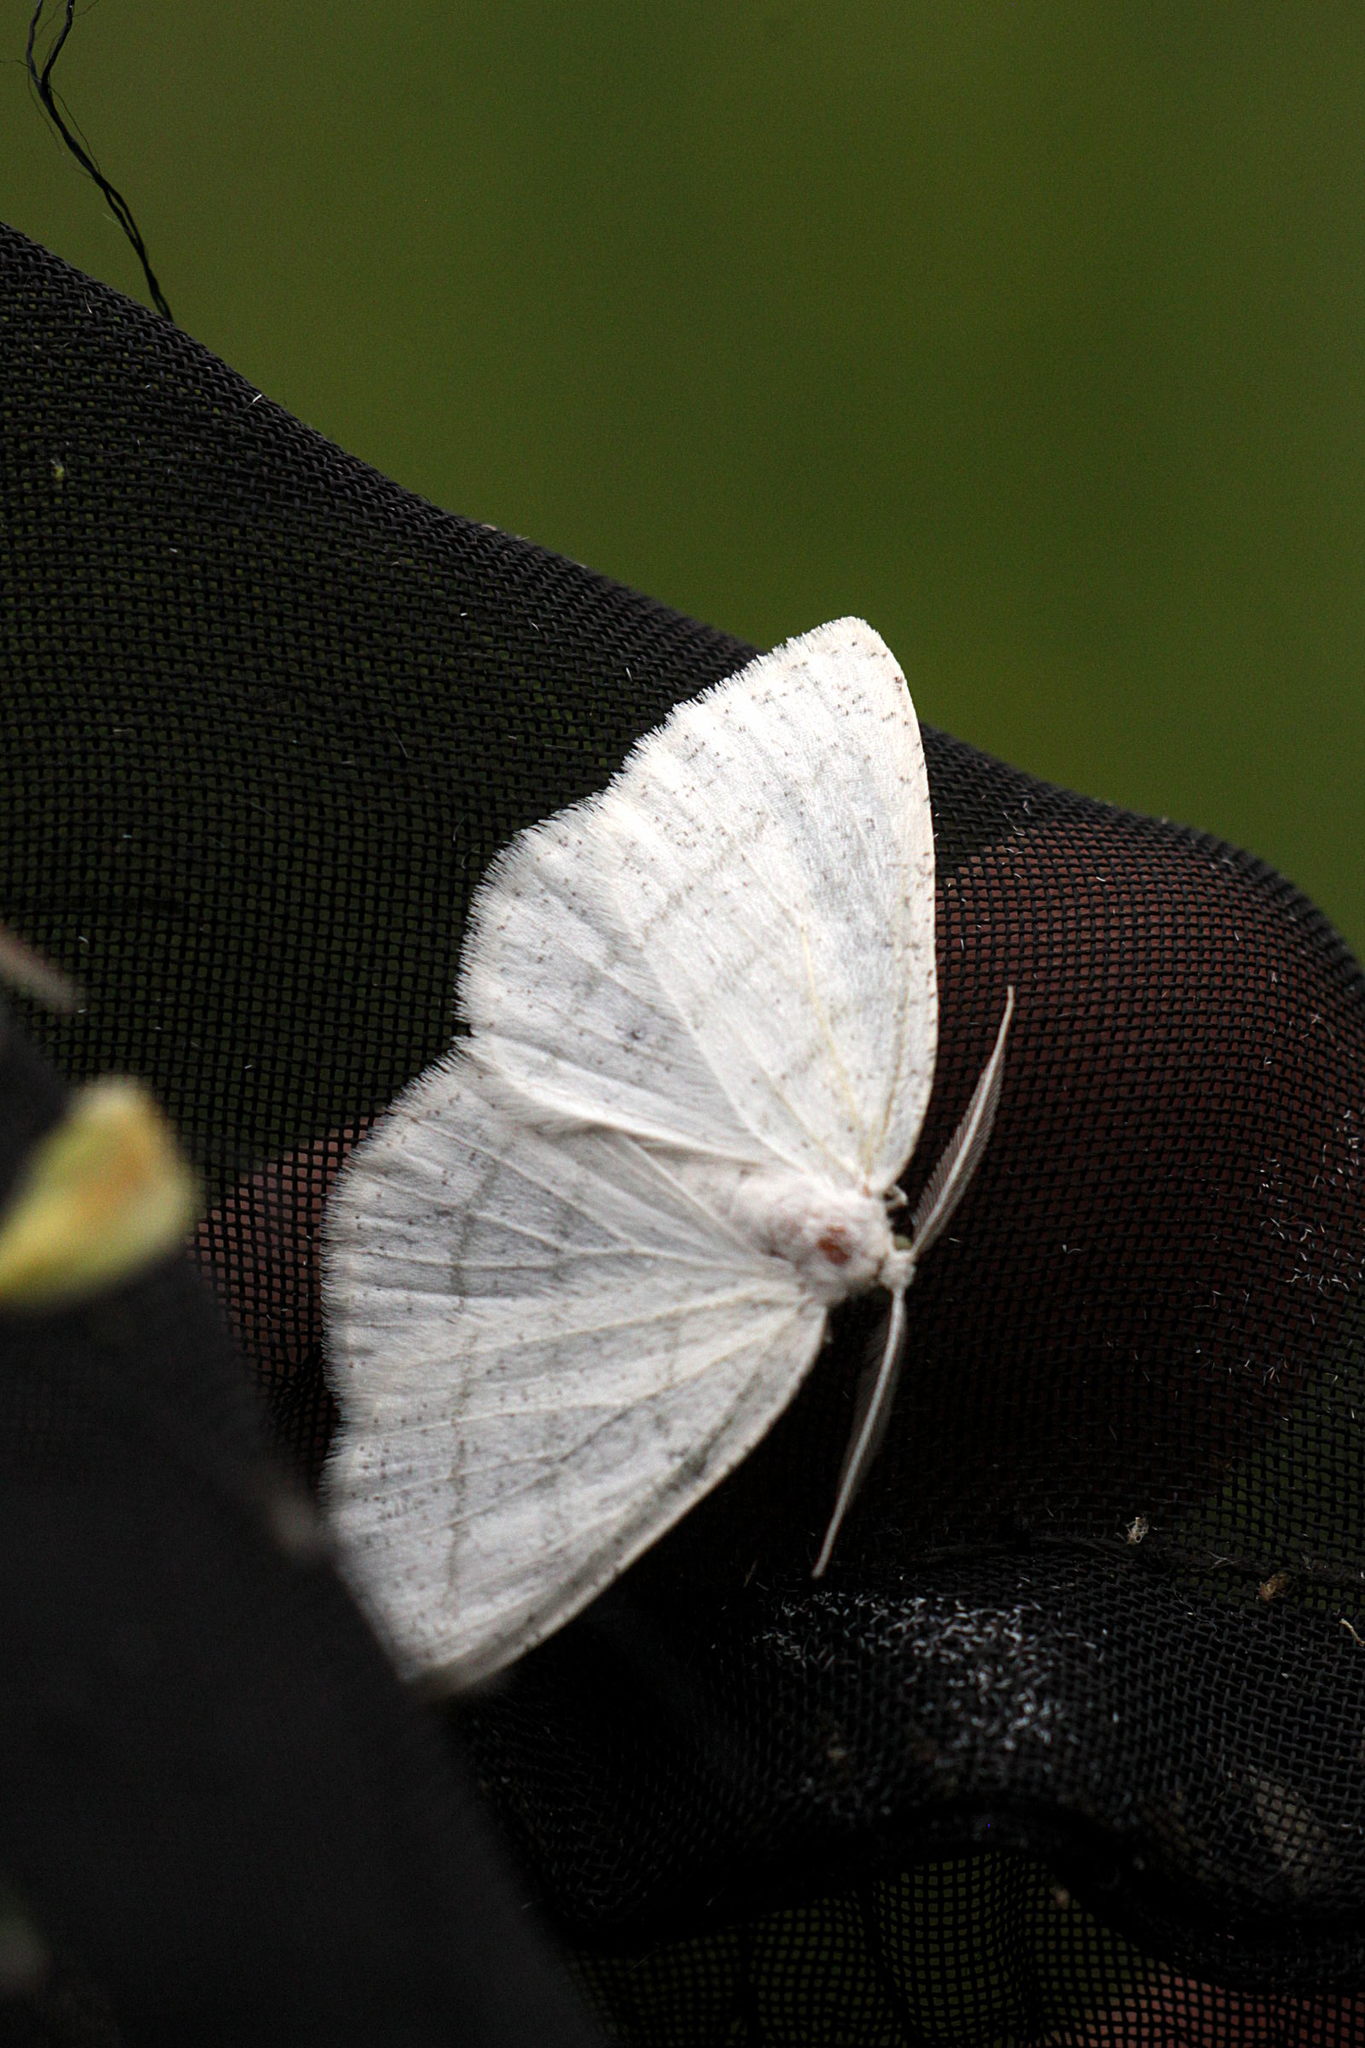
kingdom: Animalia
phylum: Arthropoda
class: Insecta
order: Lepidoptera
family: Geometridae
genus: Cabera
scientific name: Cabera pusaria
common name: Common white wave
